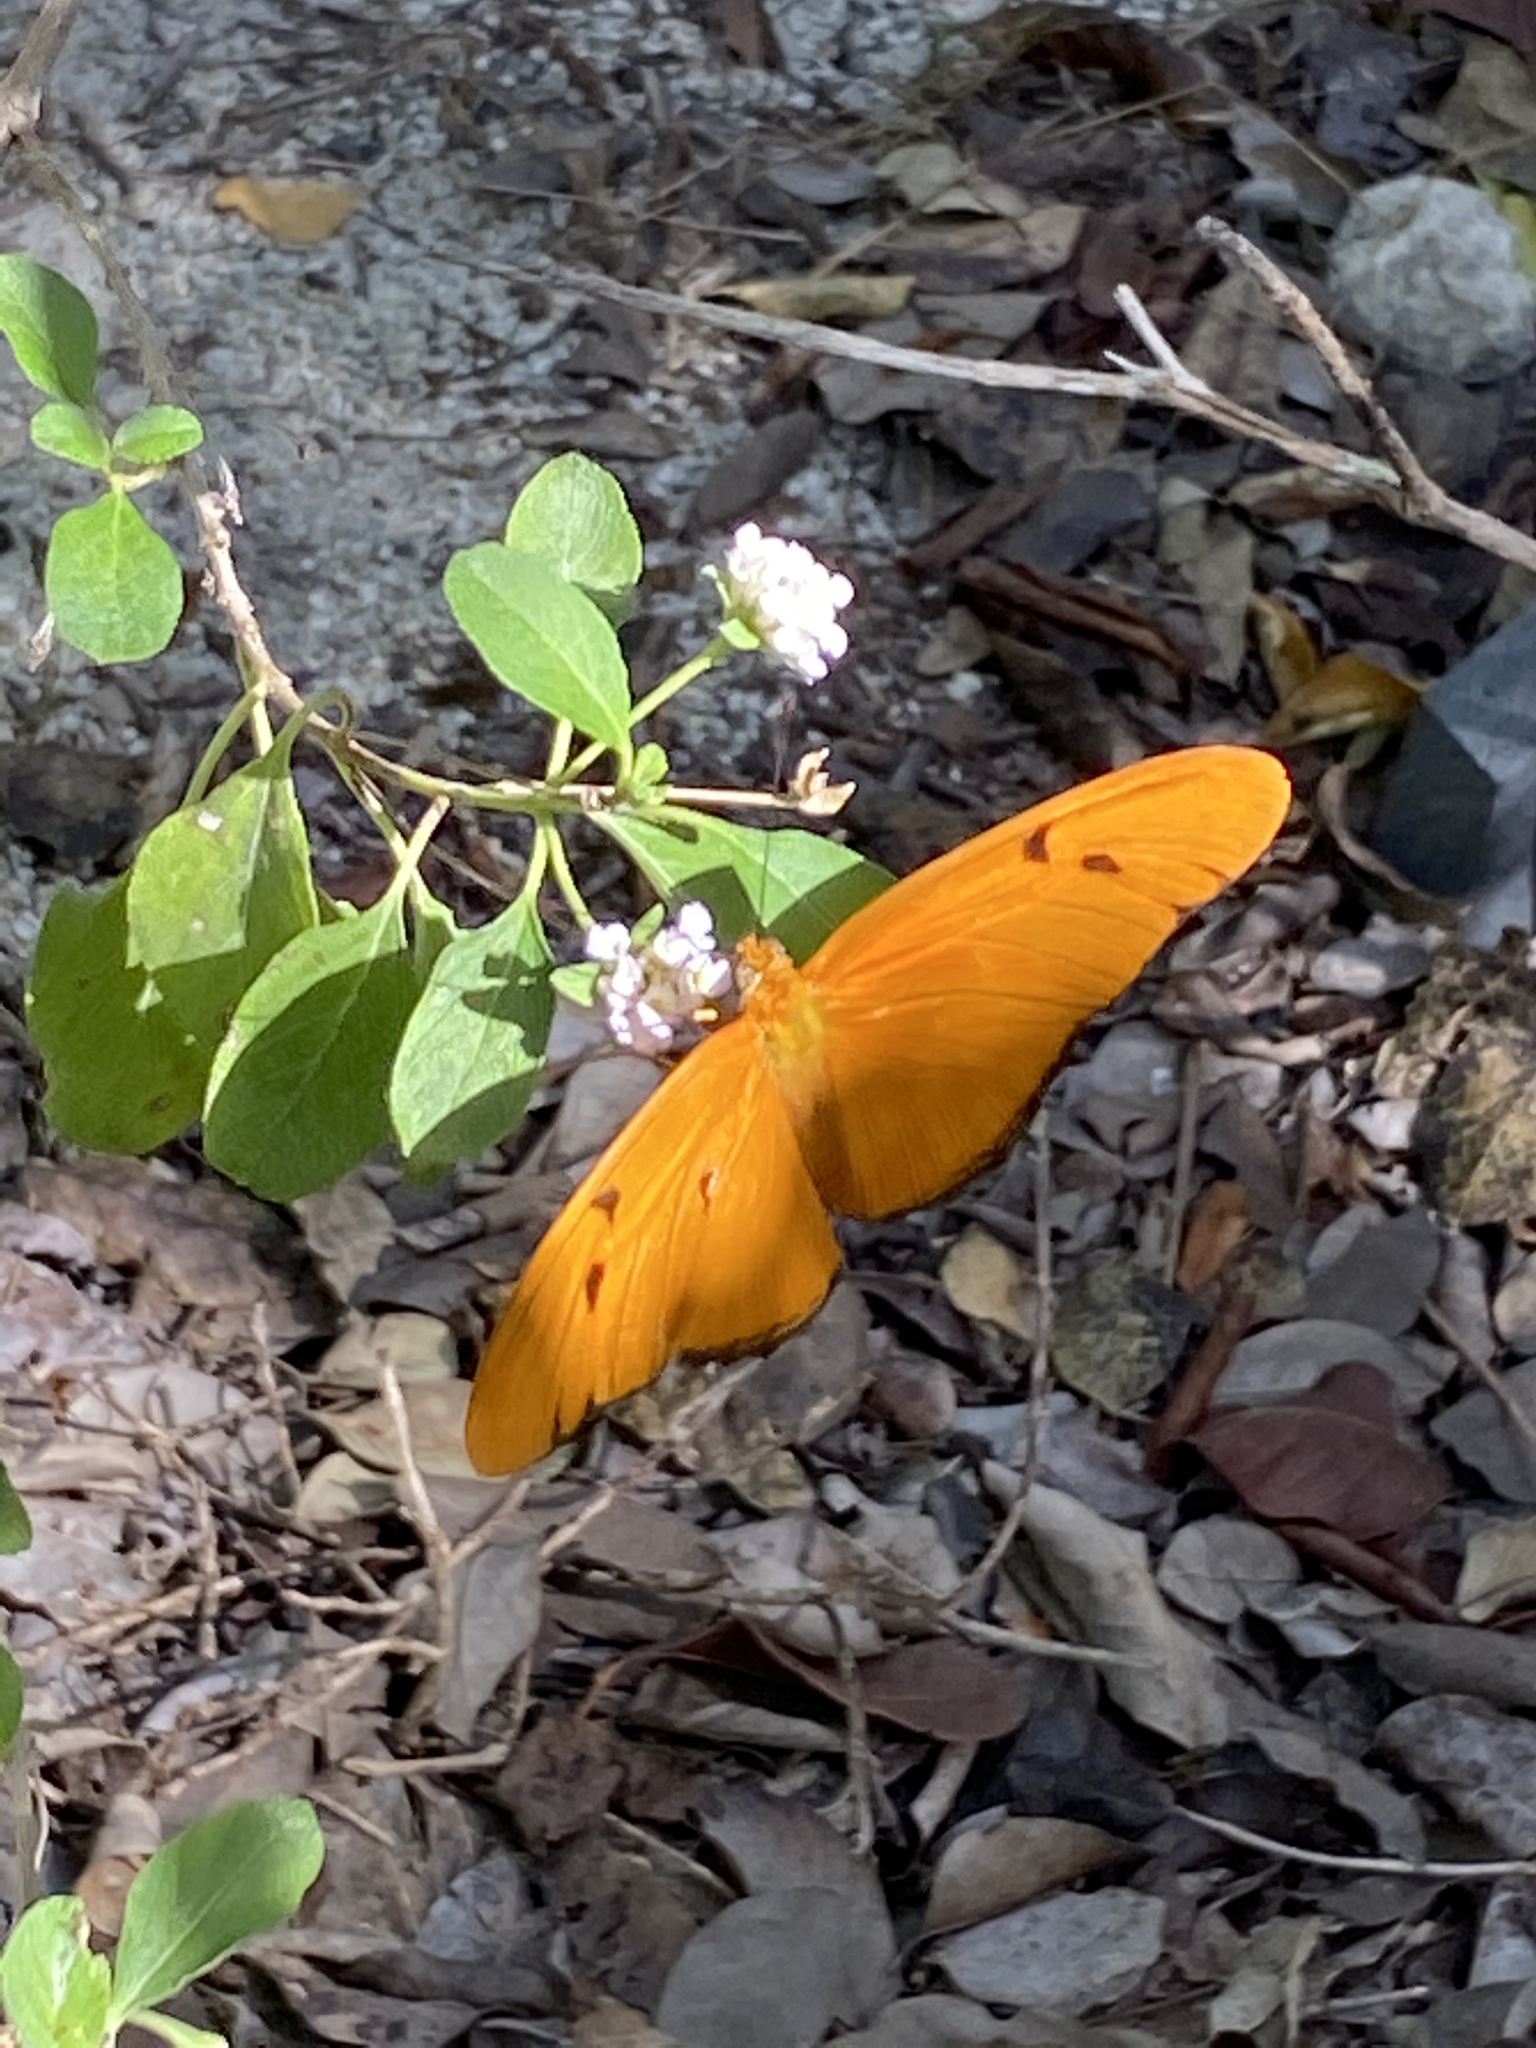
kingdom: Animalia
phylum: Arthropoda
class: Insecta
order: Lepidoptera
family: Nymphalidae
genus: Dryas
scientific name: Dryas iulia
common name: Flambeau
